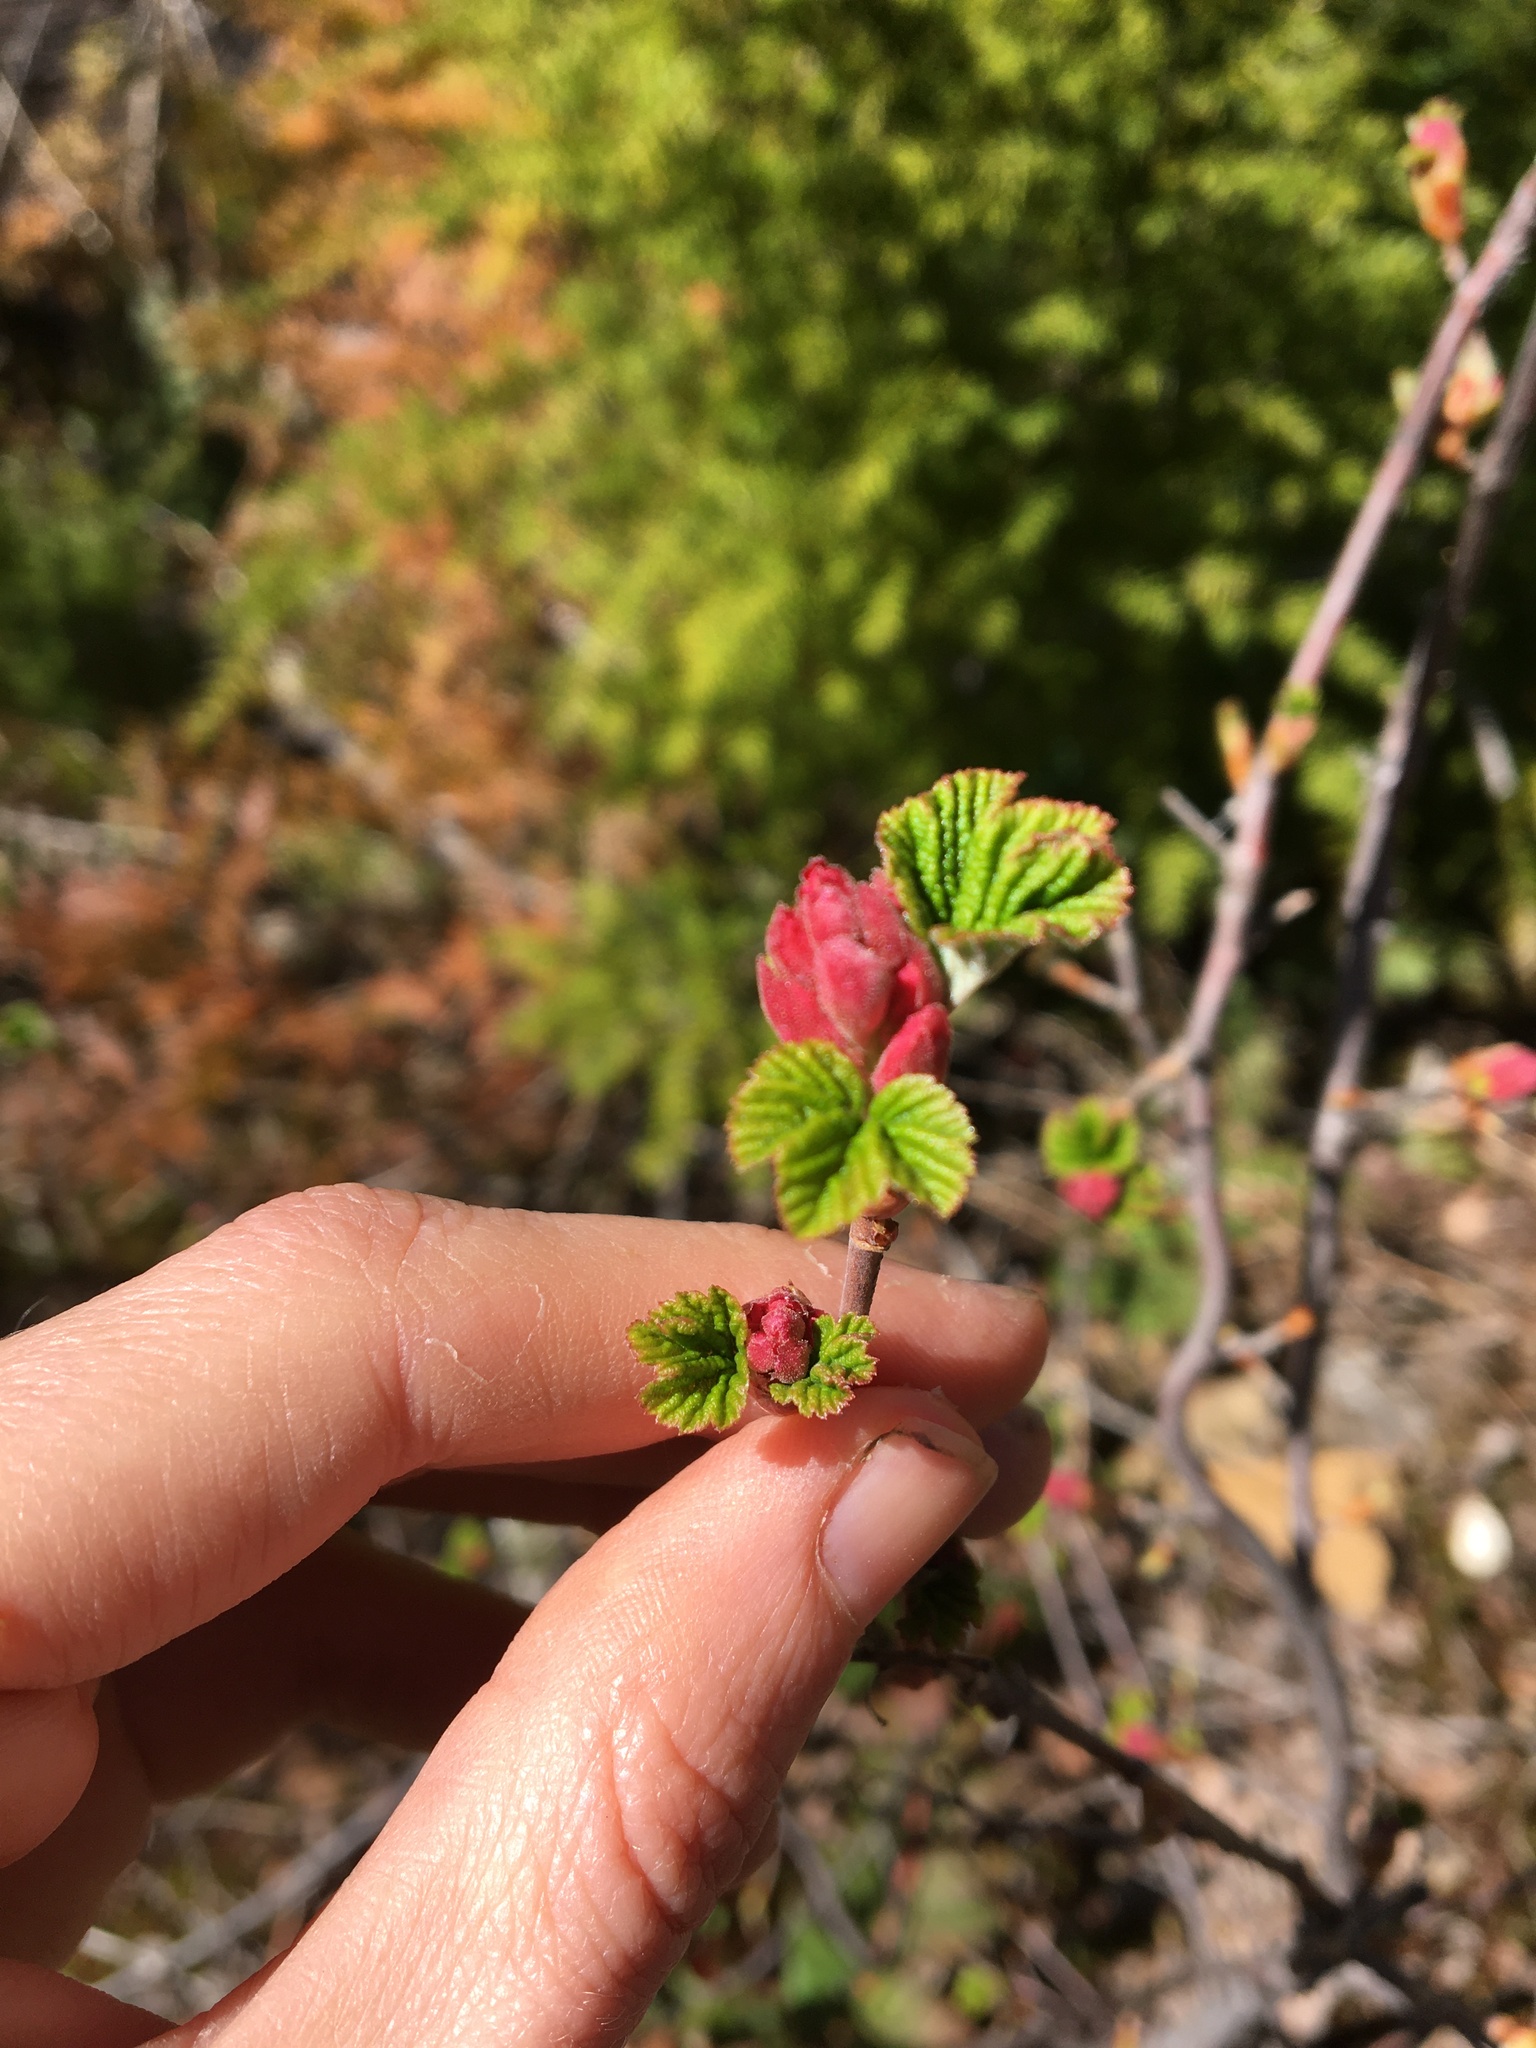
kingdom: Plantae
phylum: Tracheophyta
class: Magnoliopsida
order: Saxifragales
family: Grossulariaceae
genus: Ribes
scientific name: Ribes sanguineum
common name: Flowering currant
